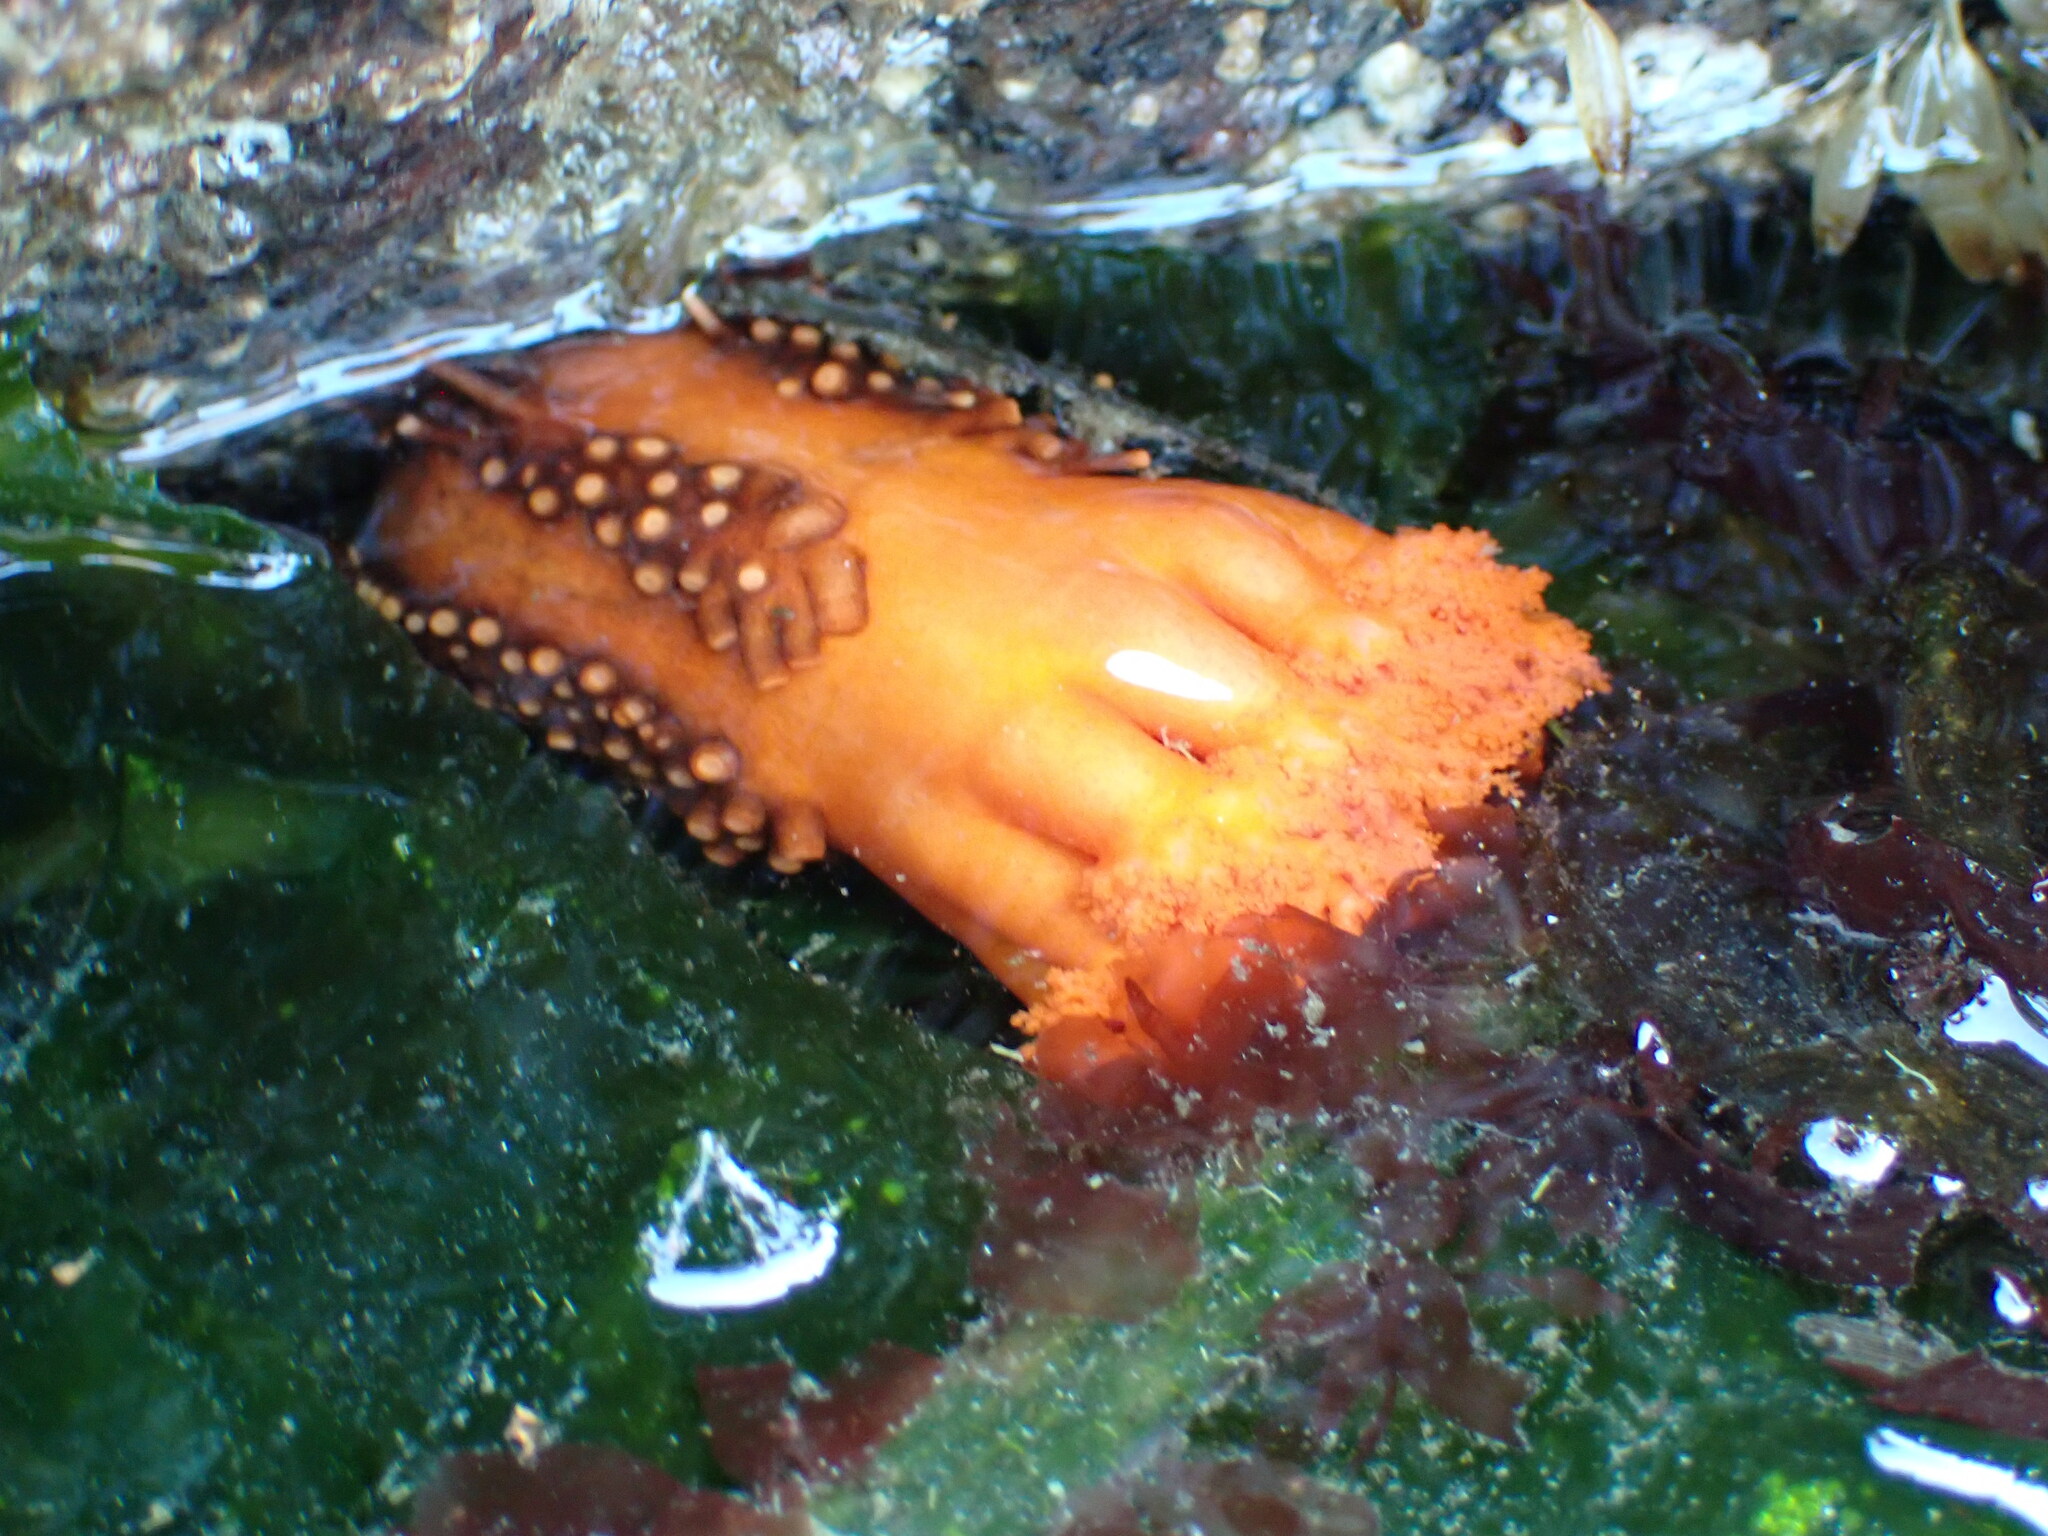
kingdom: Animalia
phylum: Echinodermata
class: Holothuroidea
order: Dendrochirotida
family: Cucumariidae
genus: Cucumaria
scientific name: Cucumaria miniata
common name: Orange sea cucumber
